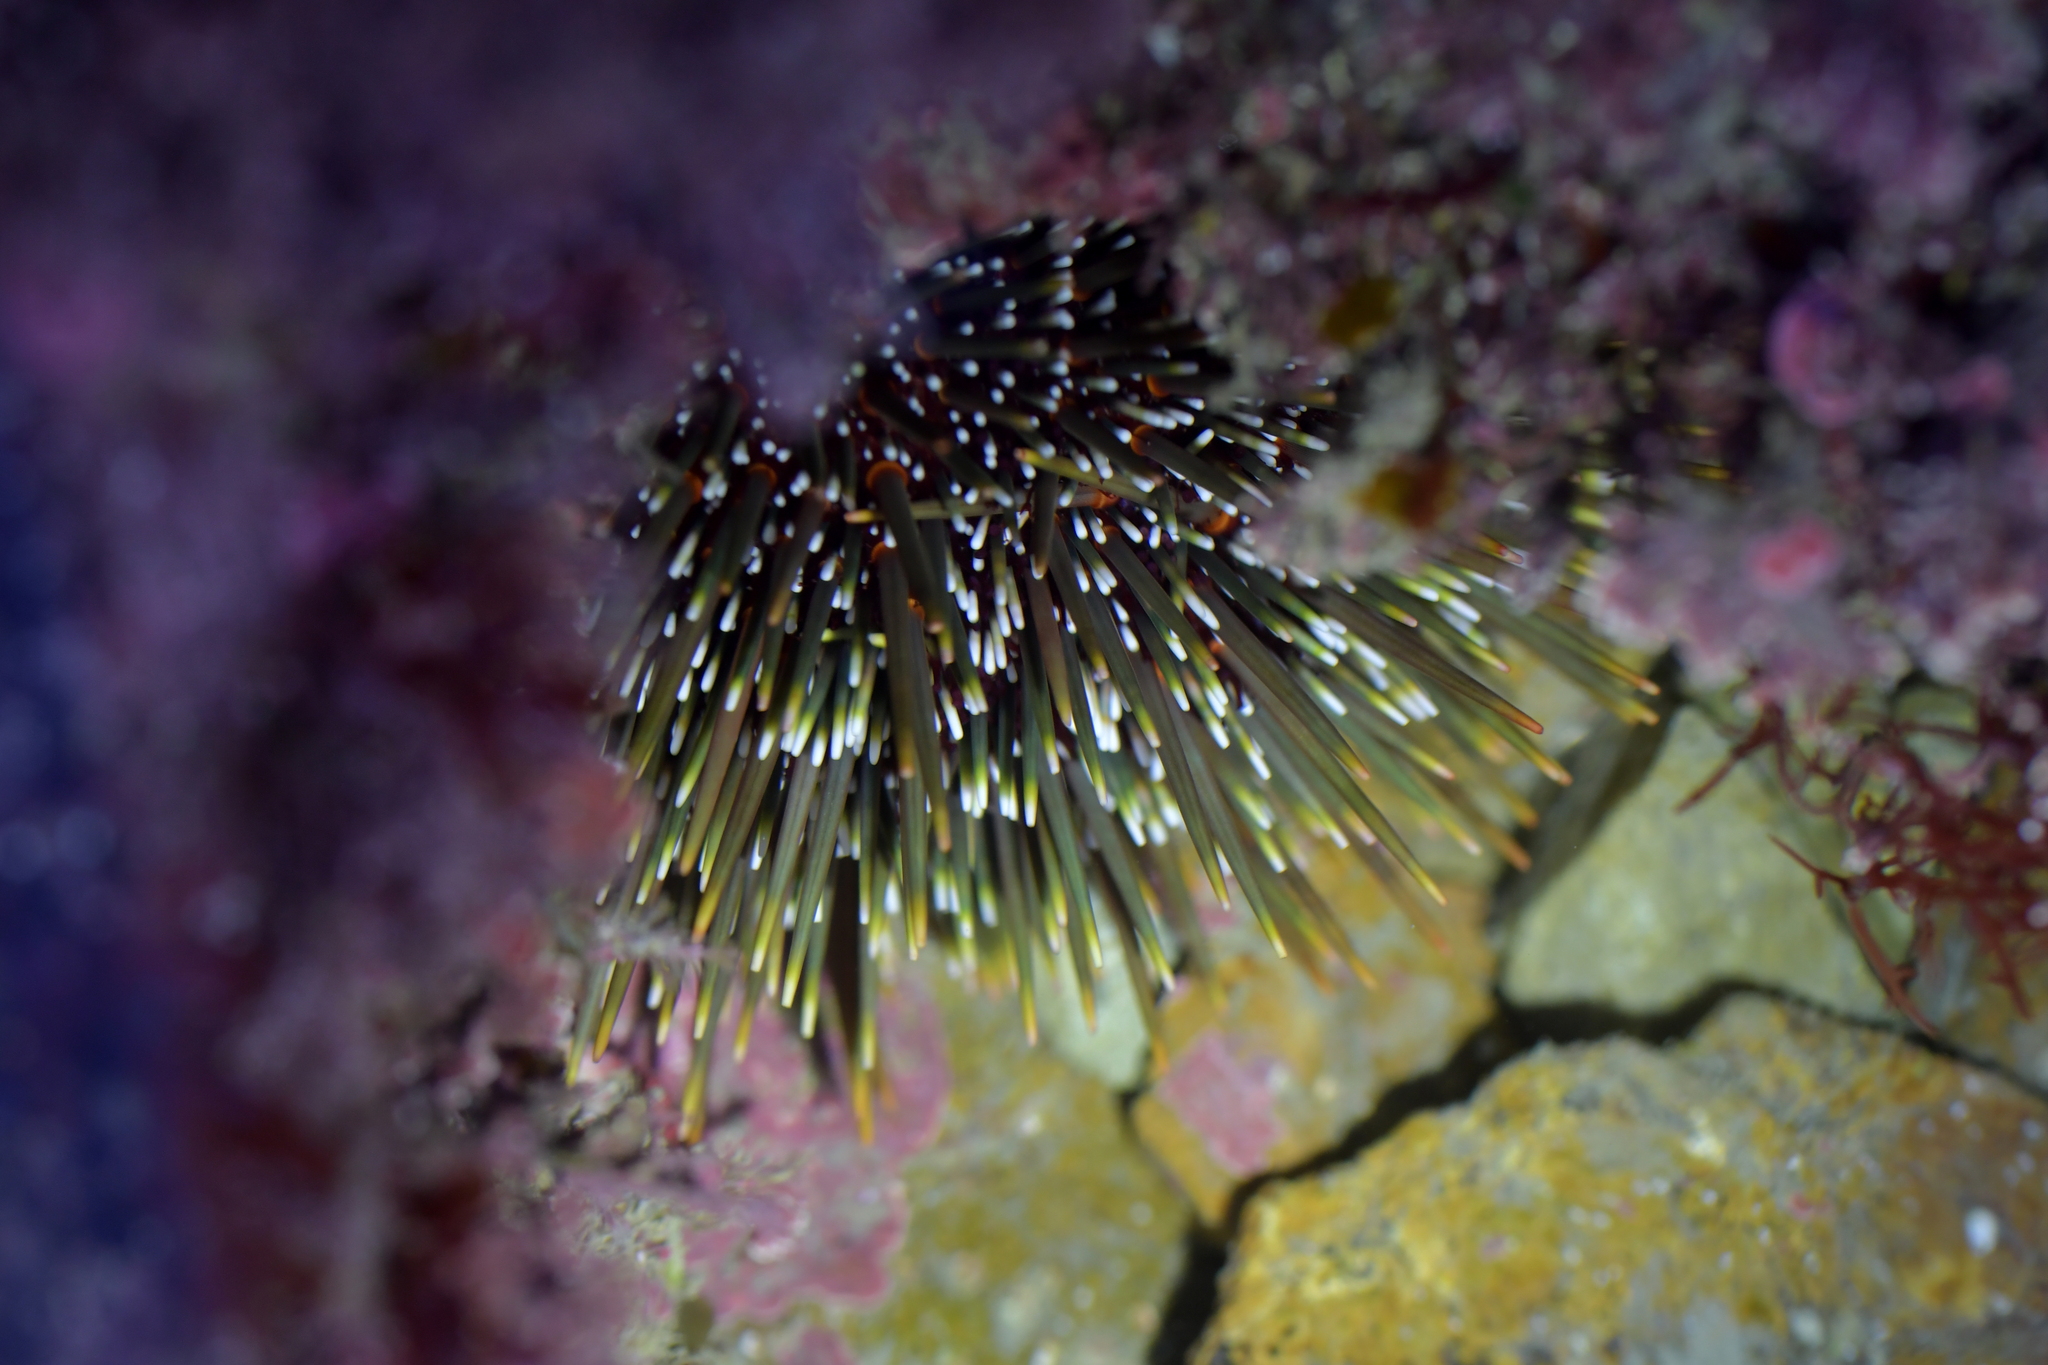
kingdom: Animalia
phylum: Echinodermata
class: Echinoidea
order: Camarodonta
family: Echinometridae
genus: Evechinus
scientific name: Evechinus chloroticus
